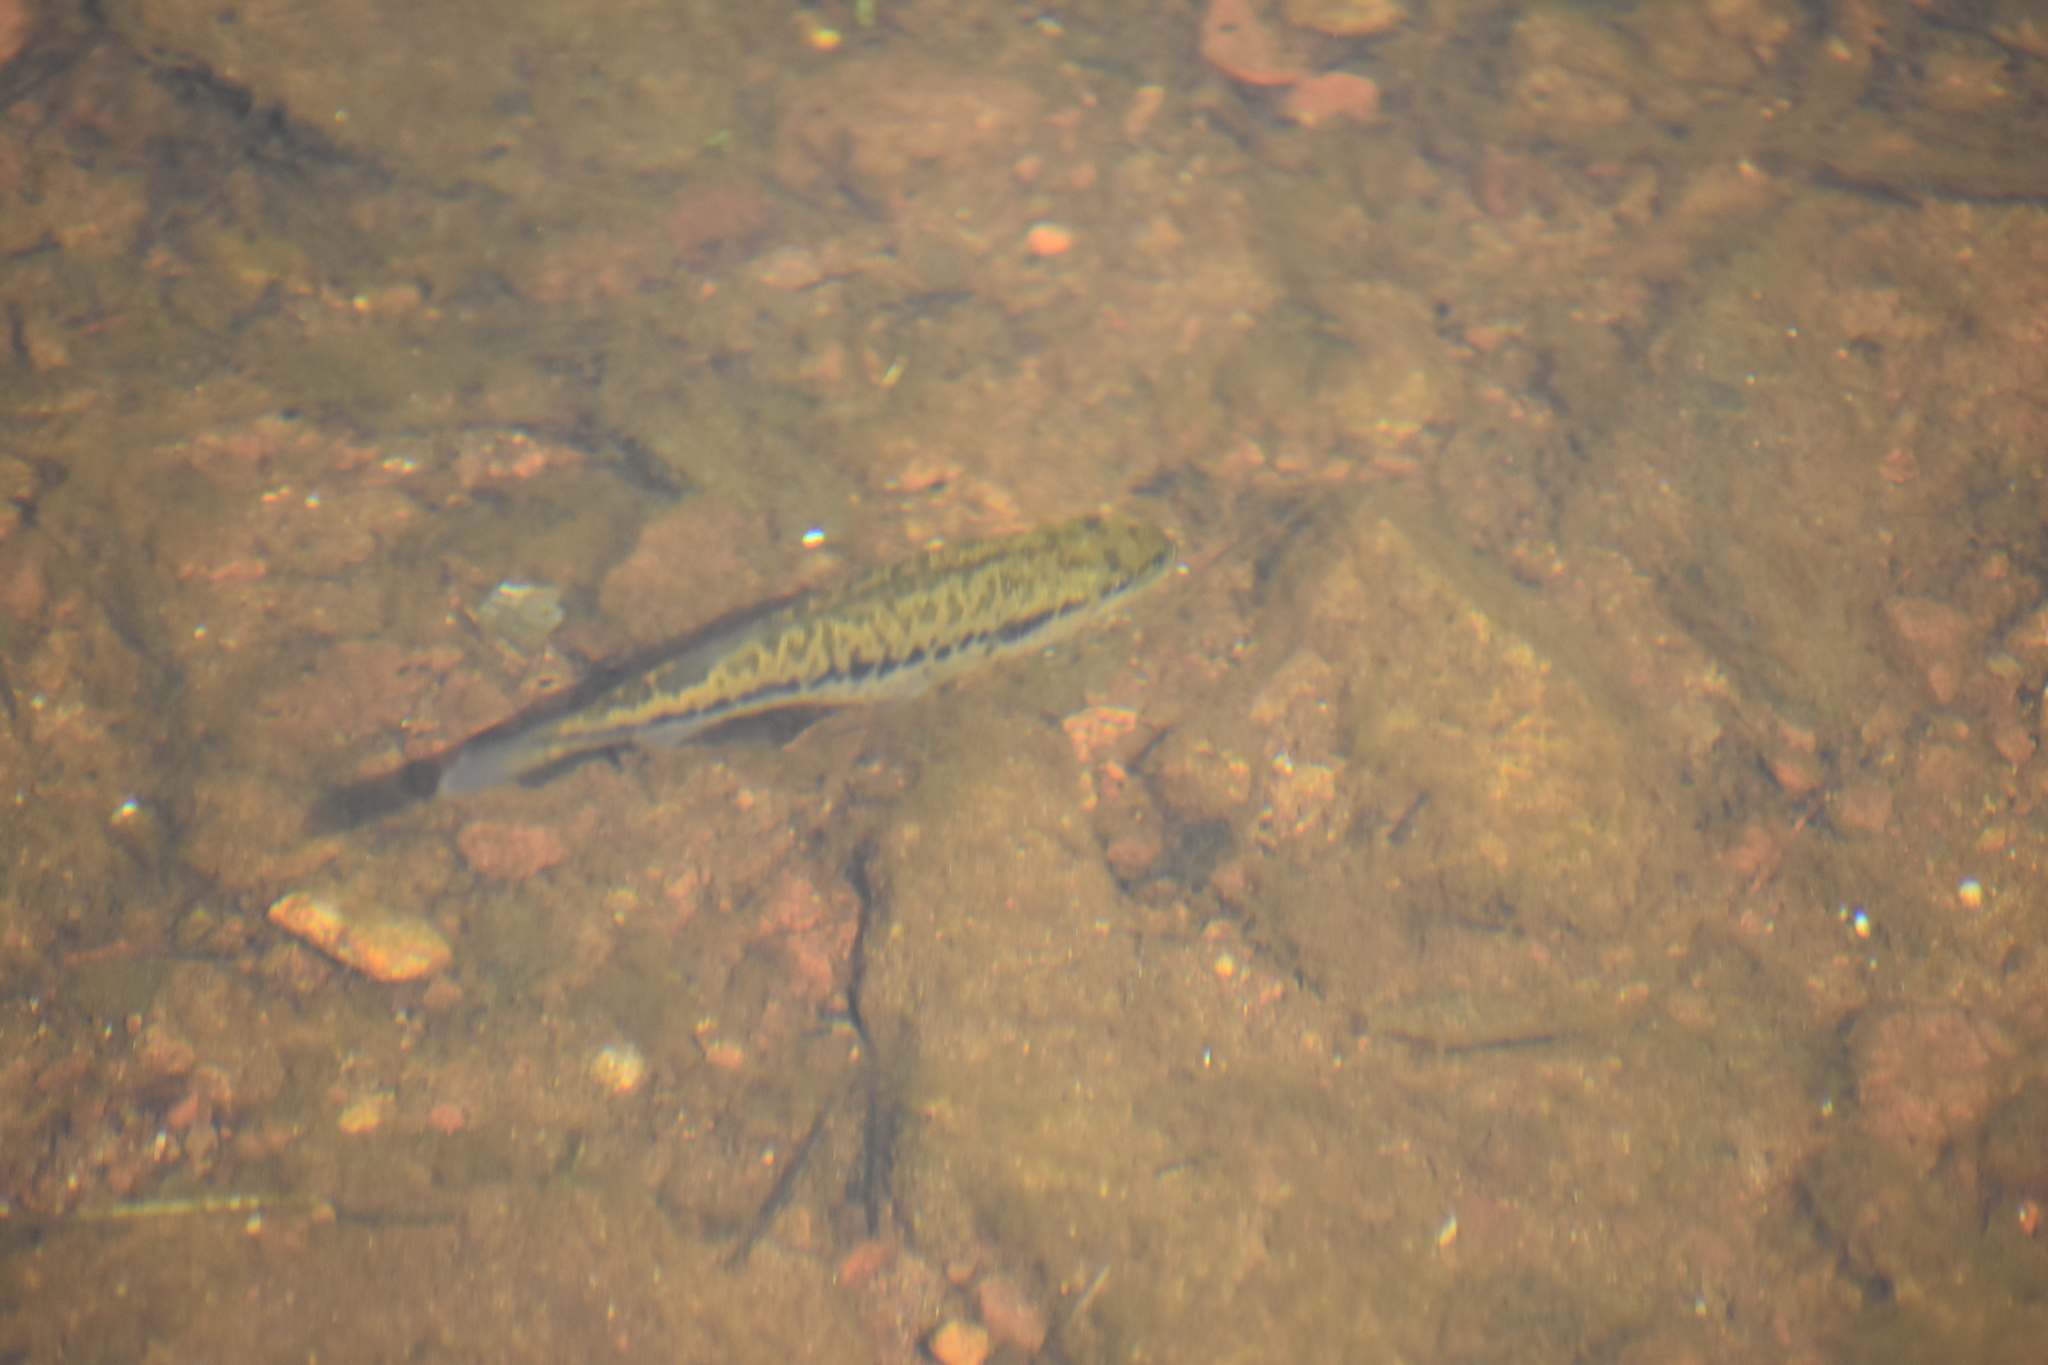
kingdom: Animalia
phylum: Chordata
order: Perciformes
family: Centrarchidae
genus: Micropterus
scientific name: Micropterus
